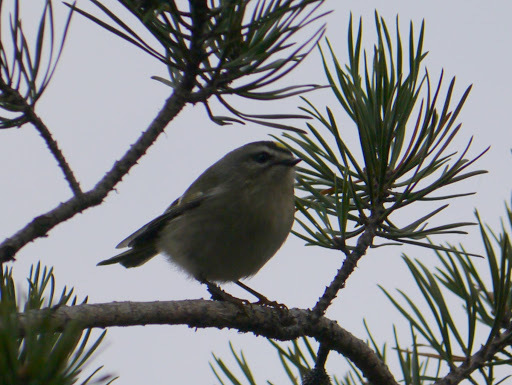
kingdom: Animalia
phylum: Chordata
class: Aves
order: Passeriformes
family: Regulidae
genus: Regulus
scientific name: Regulus satrapa
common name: Golden-crowned kinglet
